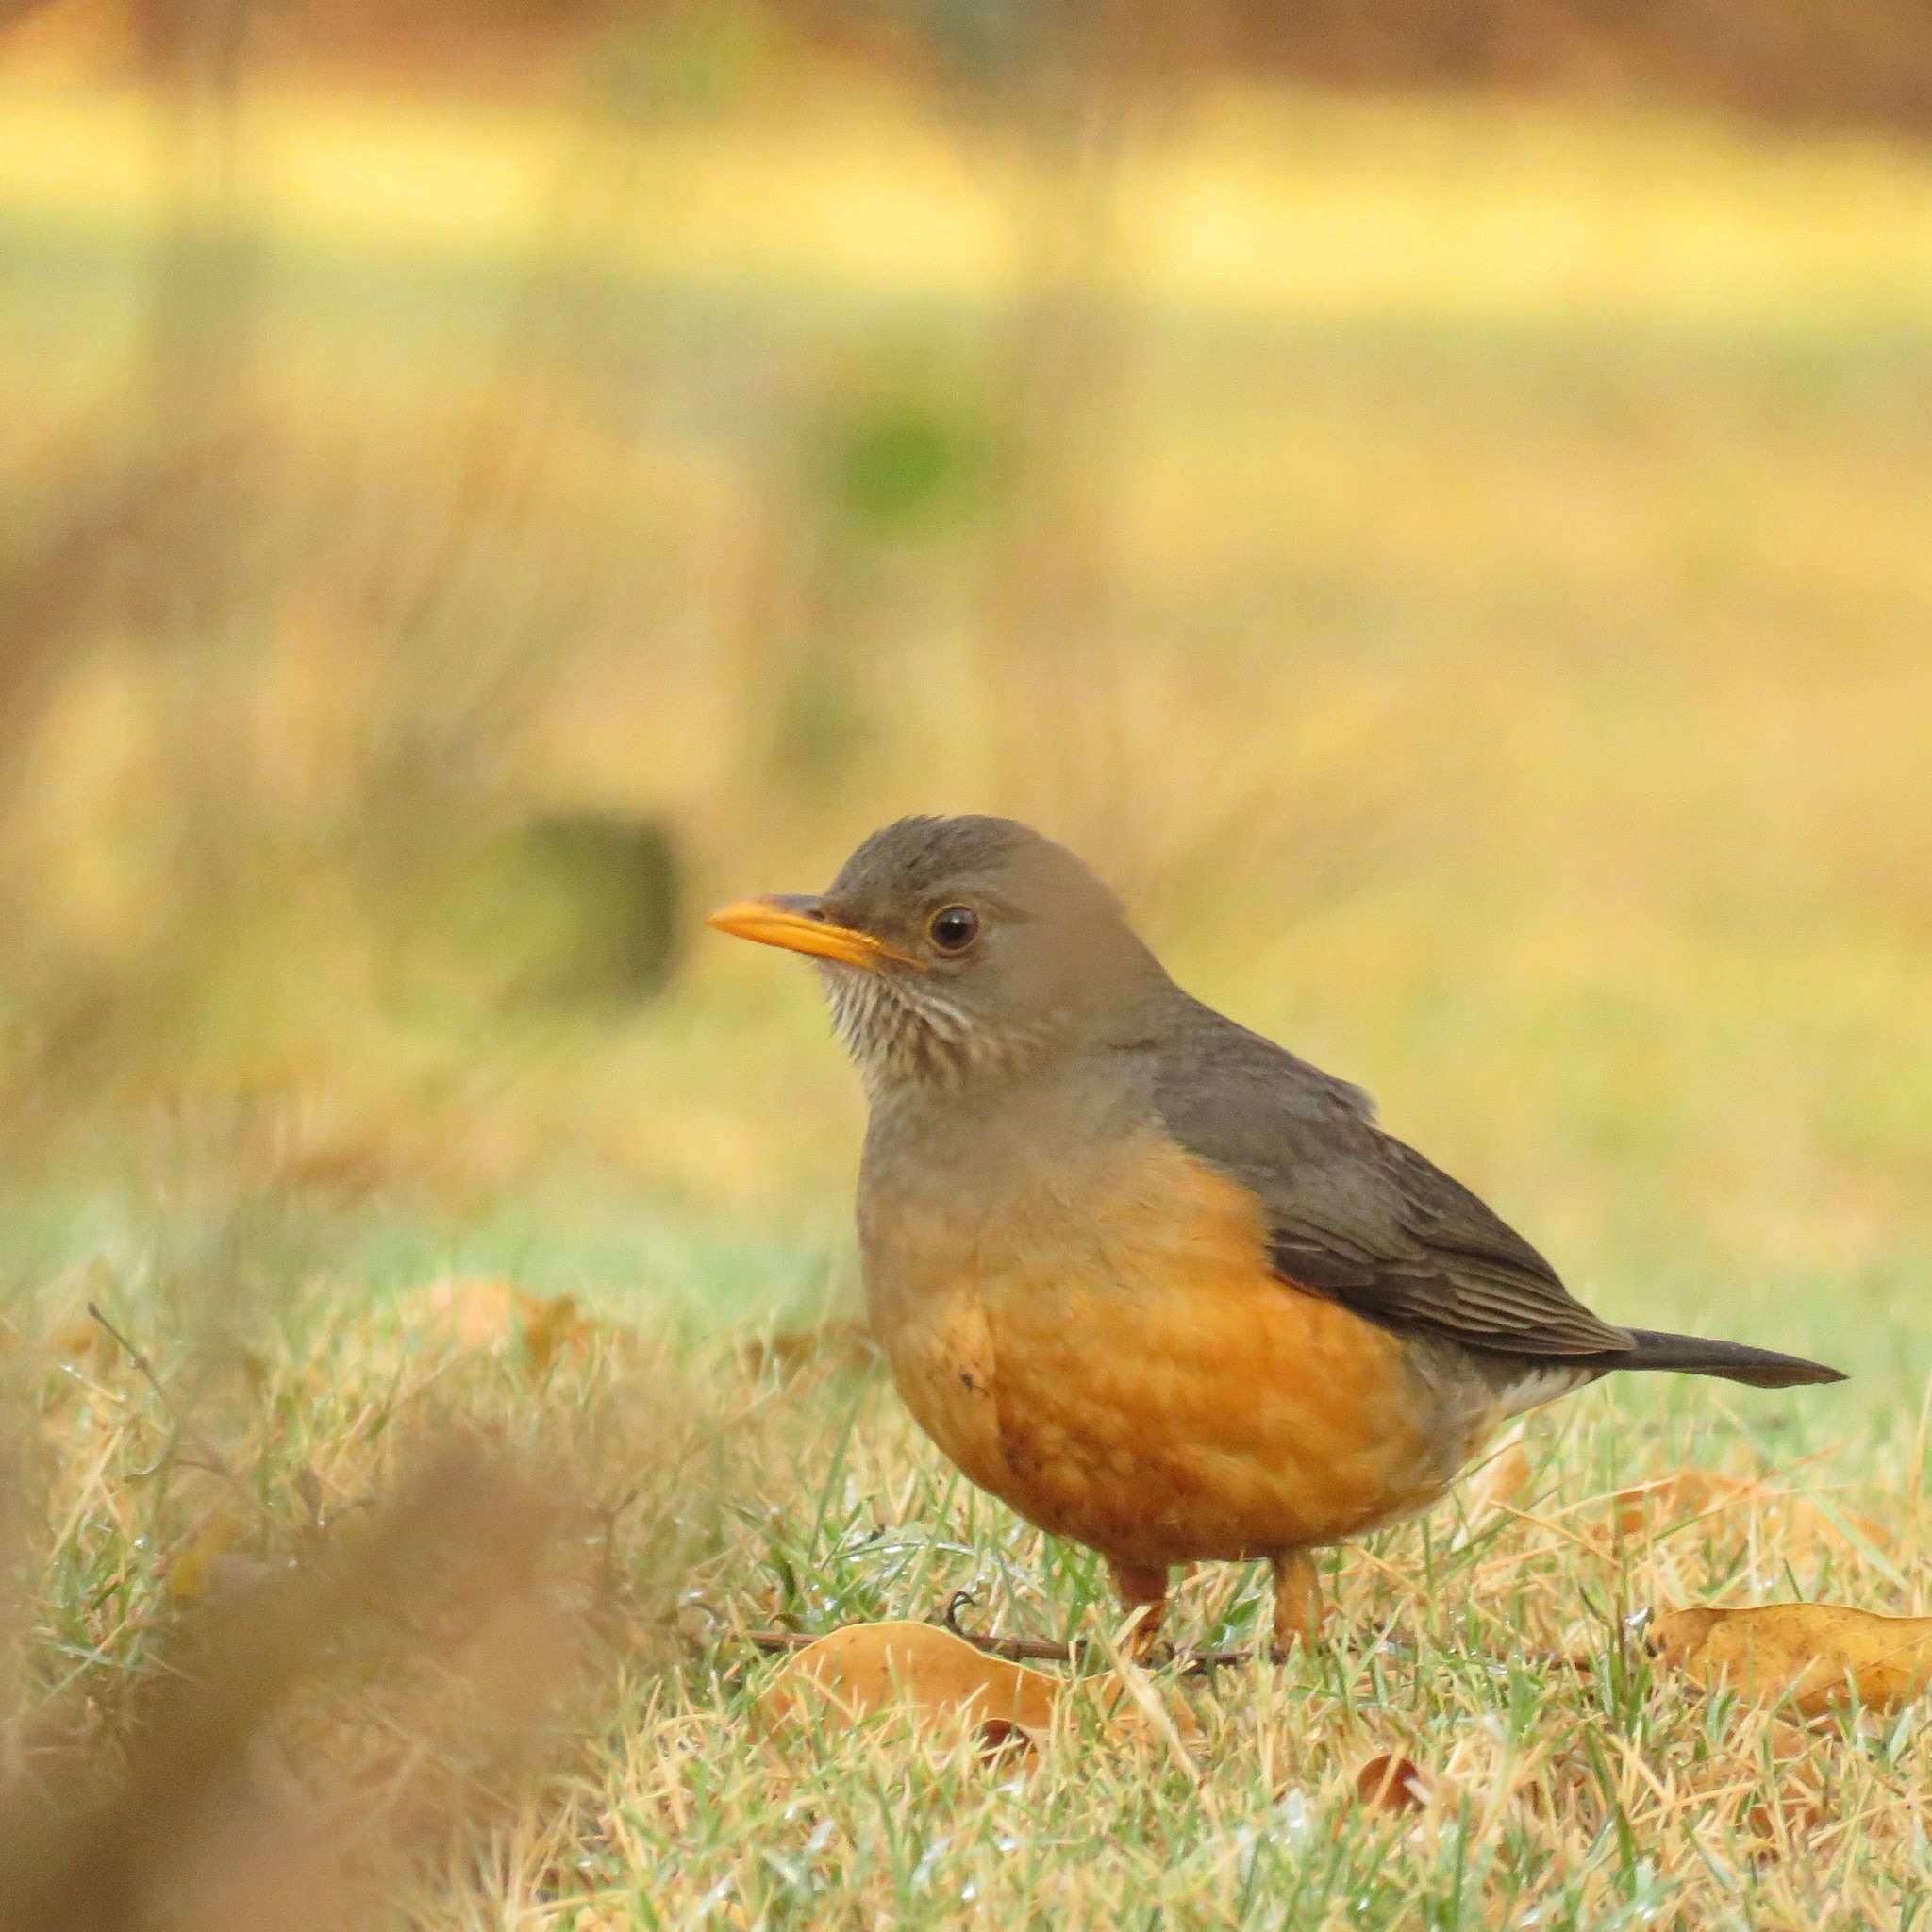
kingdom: Animalia
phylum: Chordata
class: Aves
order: Passeriformes
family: Turdidae
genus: Turdus
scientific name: Turdus olivaceus
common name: Olive thrush
